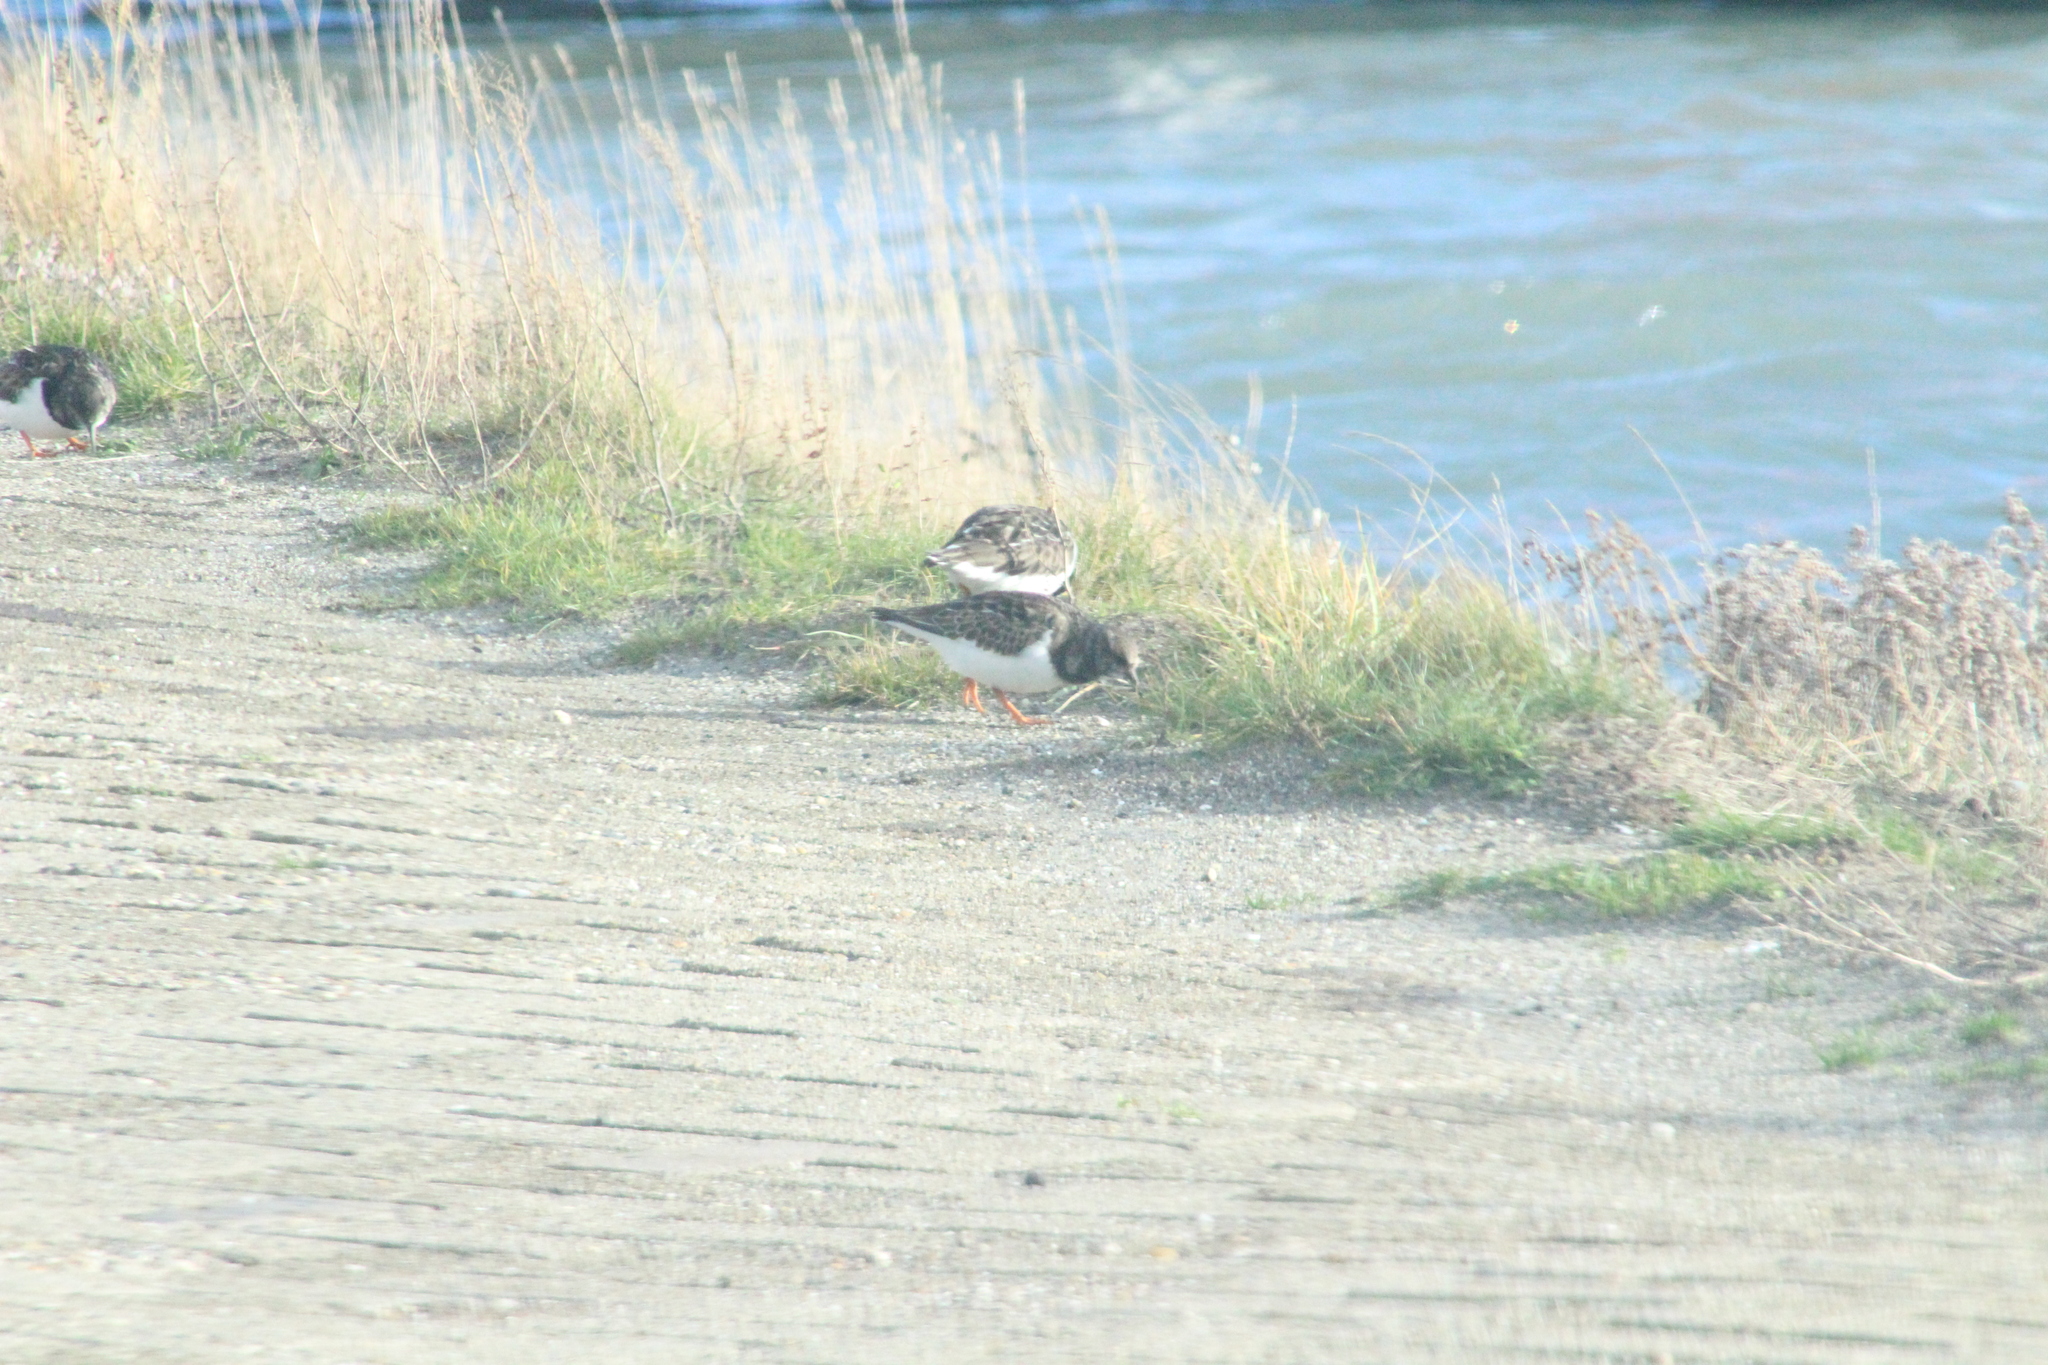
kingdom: Animalia
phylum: Chordata
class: Aves
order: Charadriiformes
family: Scolopacidae
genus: Arenaria
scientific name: Arenaria interpres
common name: Ruddy turnstone
